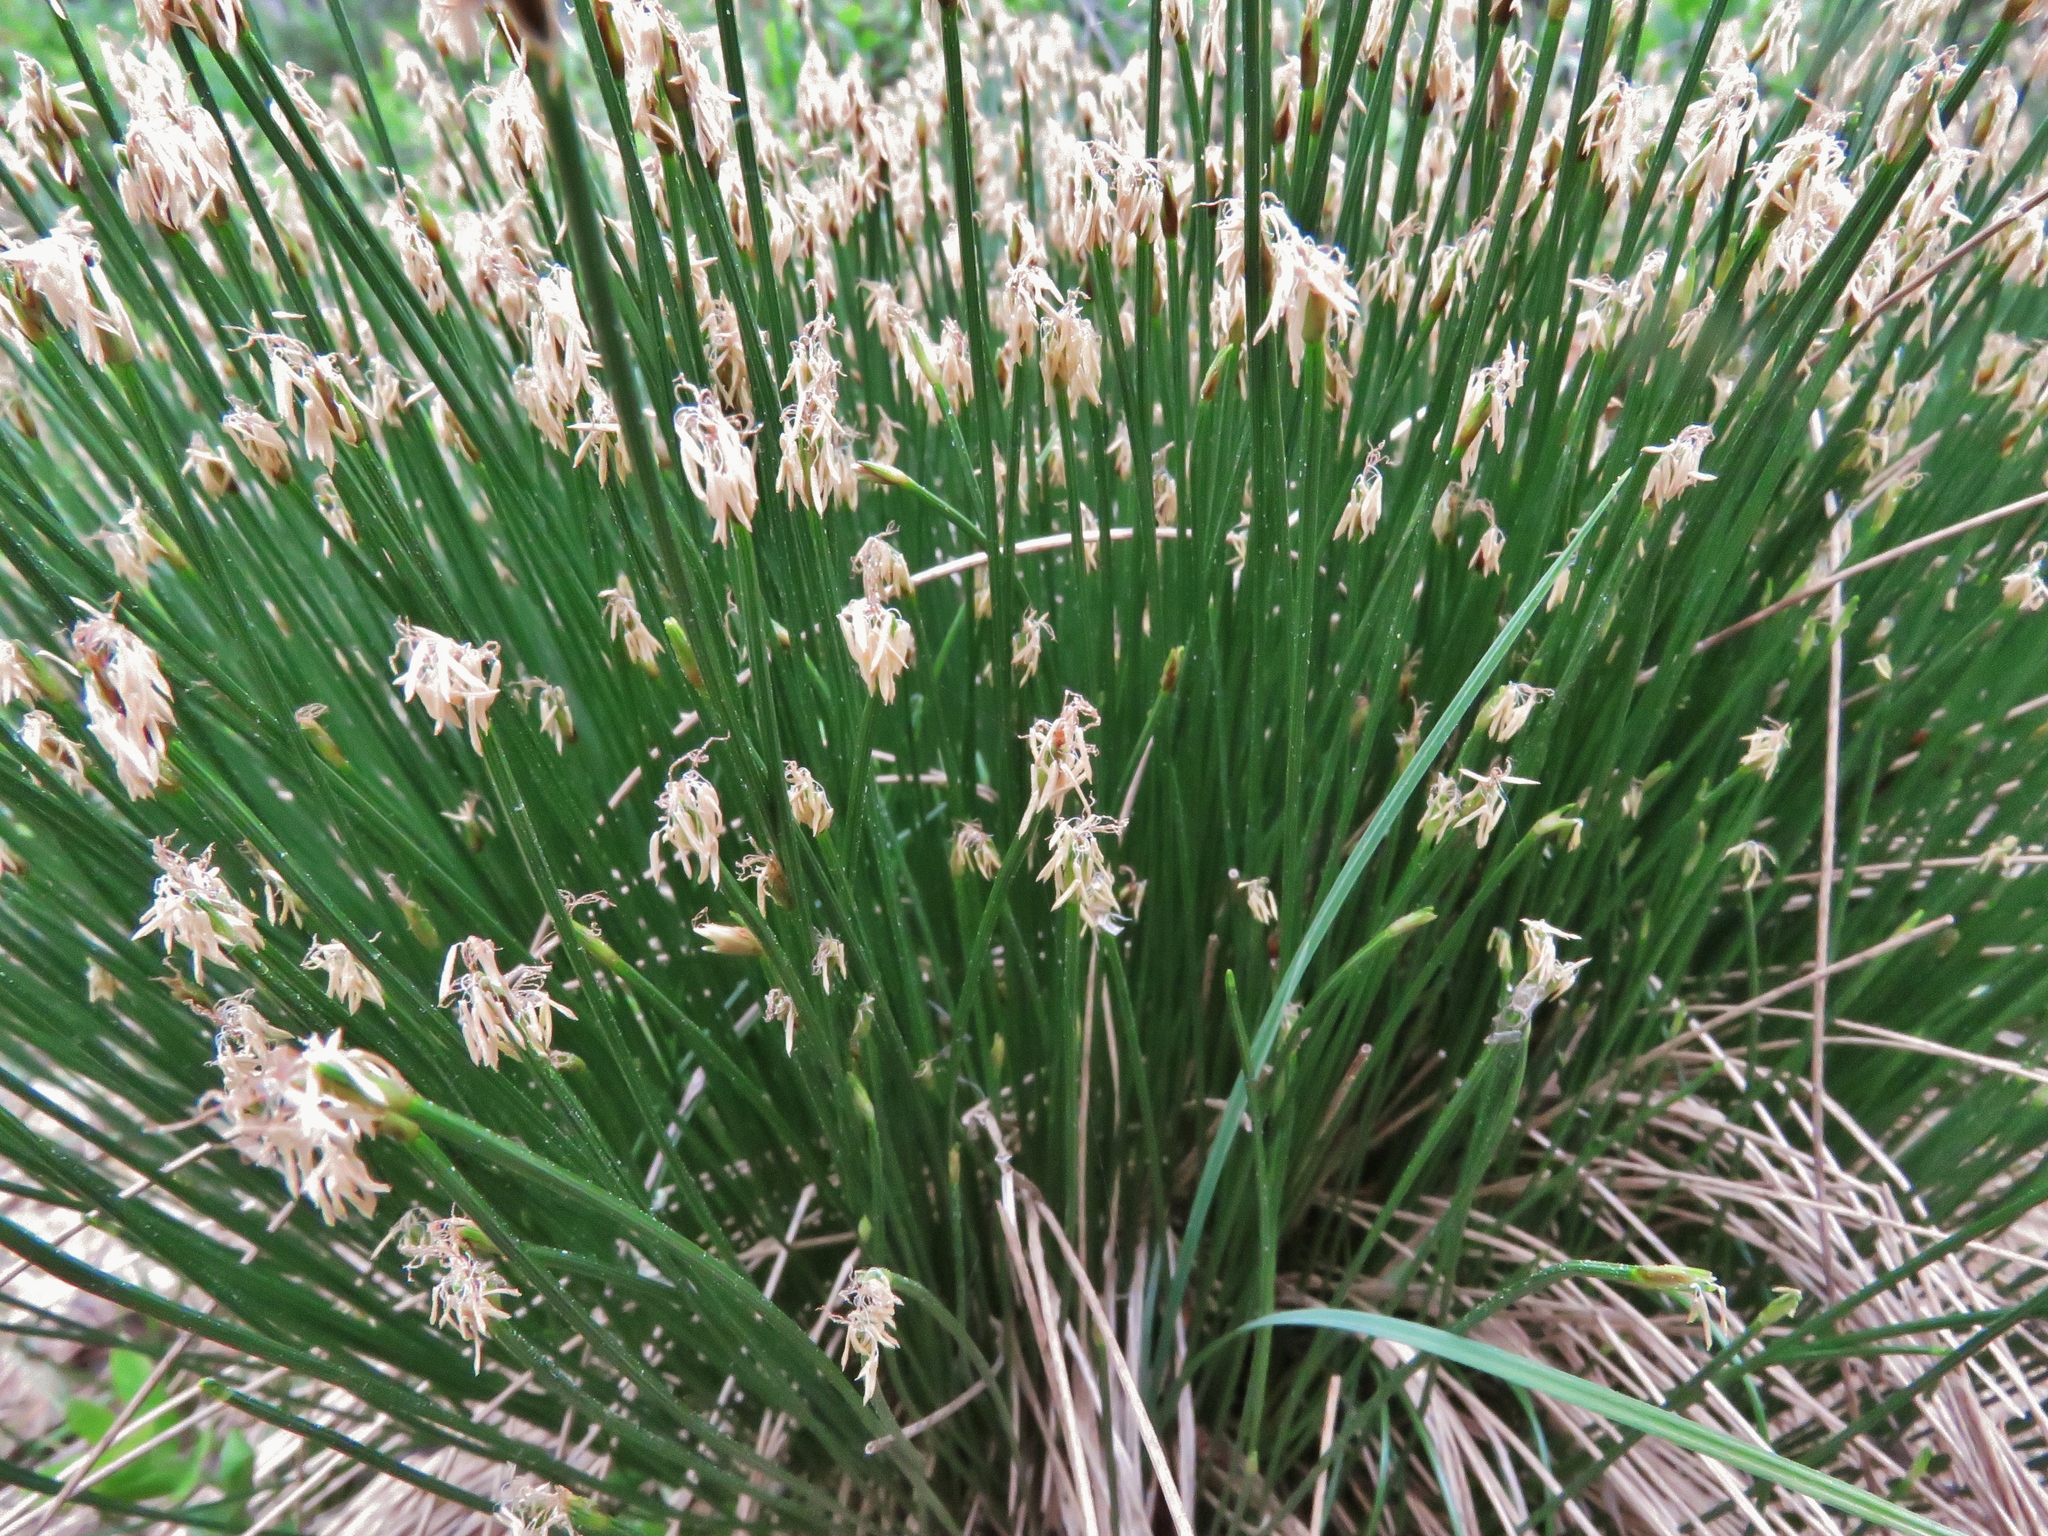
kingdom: Plantae
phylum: Tracheophyta
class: Liliopsida
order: Poales
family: Cyperaceae
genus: Trichophorum
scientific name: Trichophorum cespitosum
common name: Cespitose bulrush
